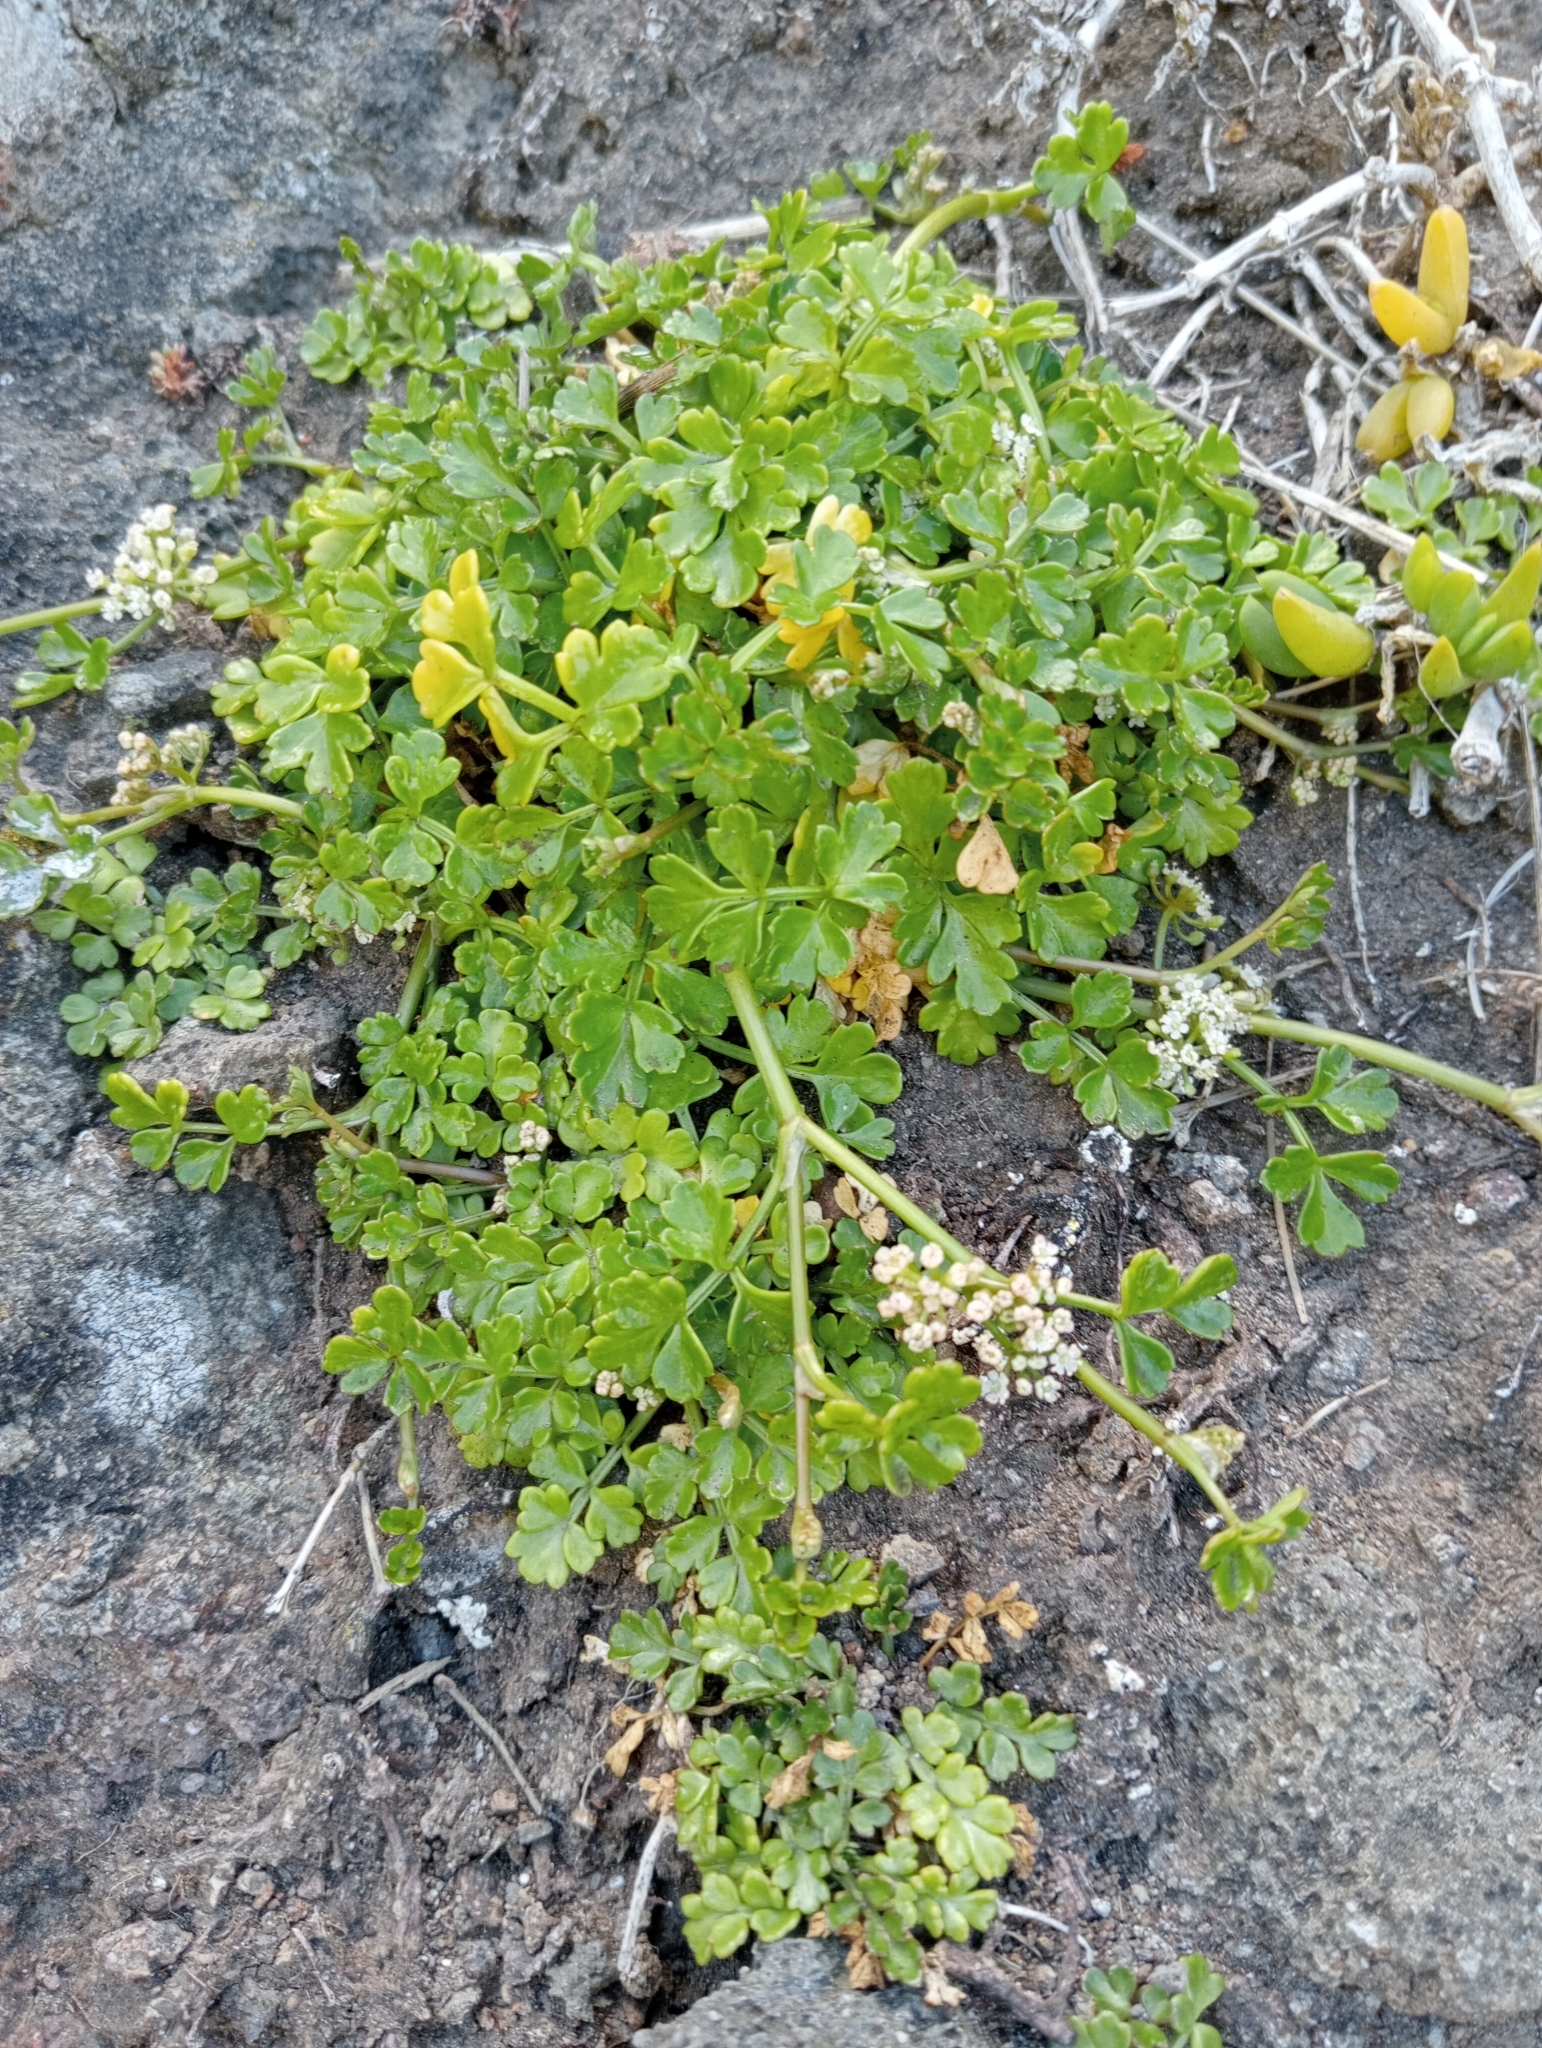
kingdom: Plantae
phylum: Tracheophyta
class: Magnoliopsida
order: Apiales
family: Apiaceae
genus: Apium
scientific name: Apium prostratum
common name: Prostrate marshwort
